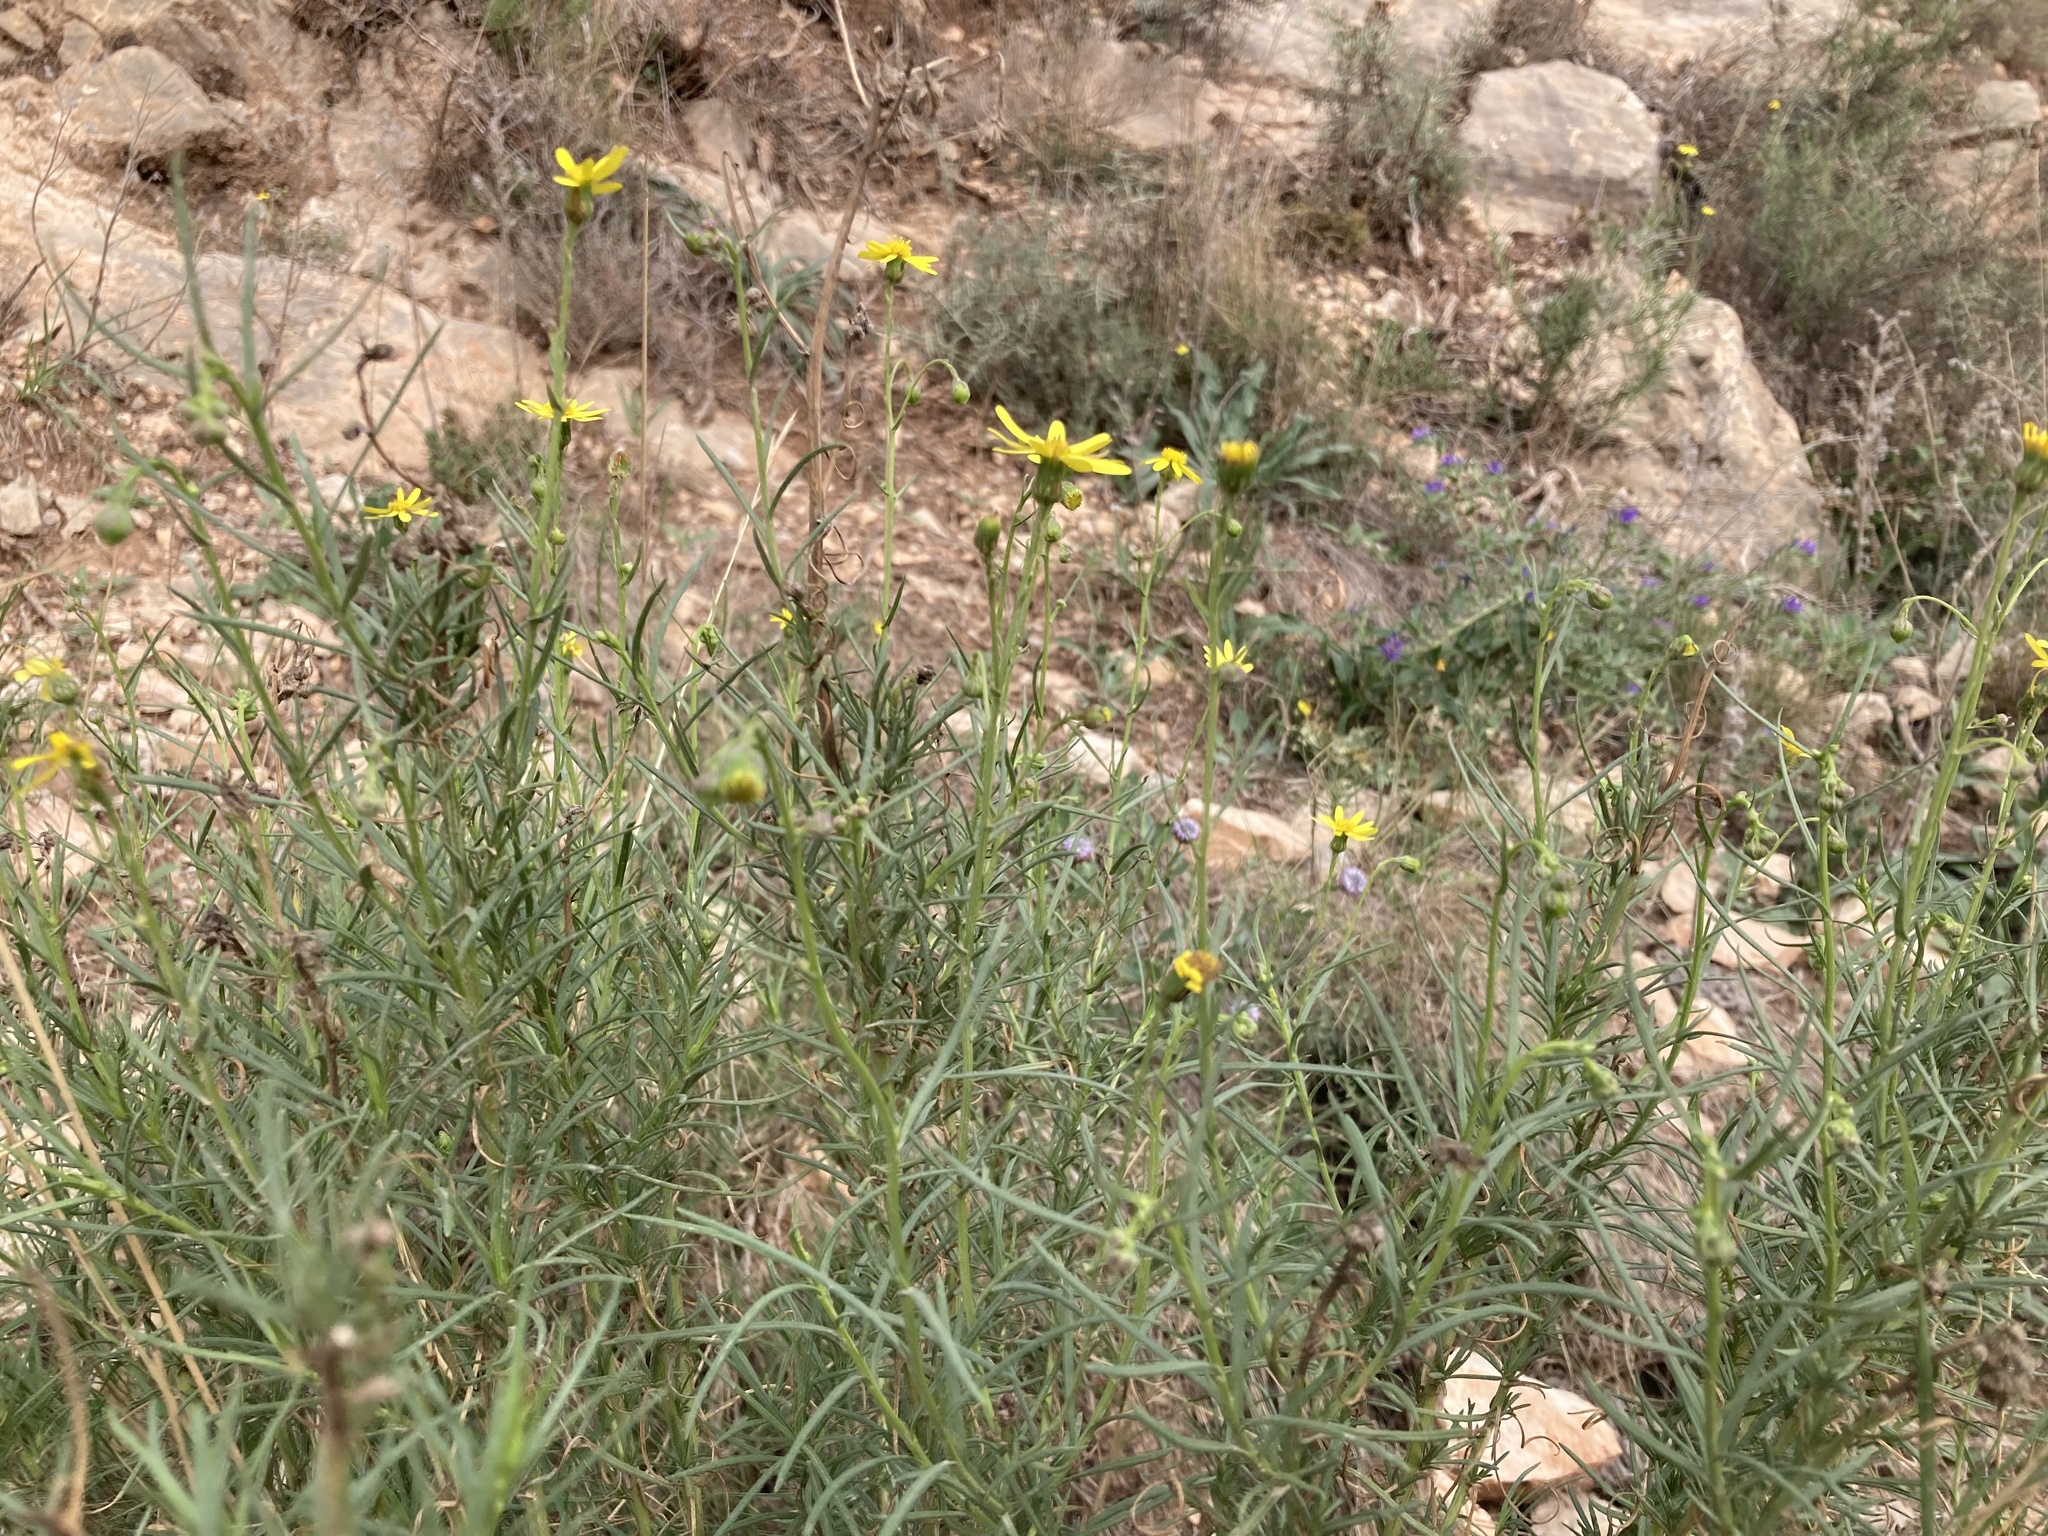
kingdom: Plantae
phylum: Tracheophyta
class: Magnoliopsida
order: Asterales
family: Asteraceae
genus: Senecio
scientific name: Senecio inaequidens
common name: Narrow-leaved ragwort
